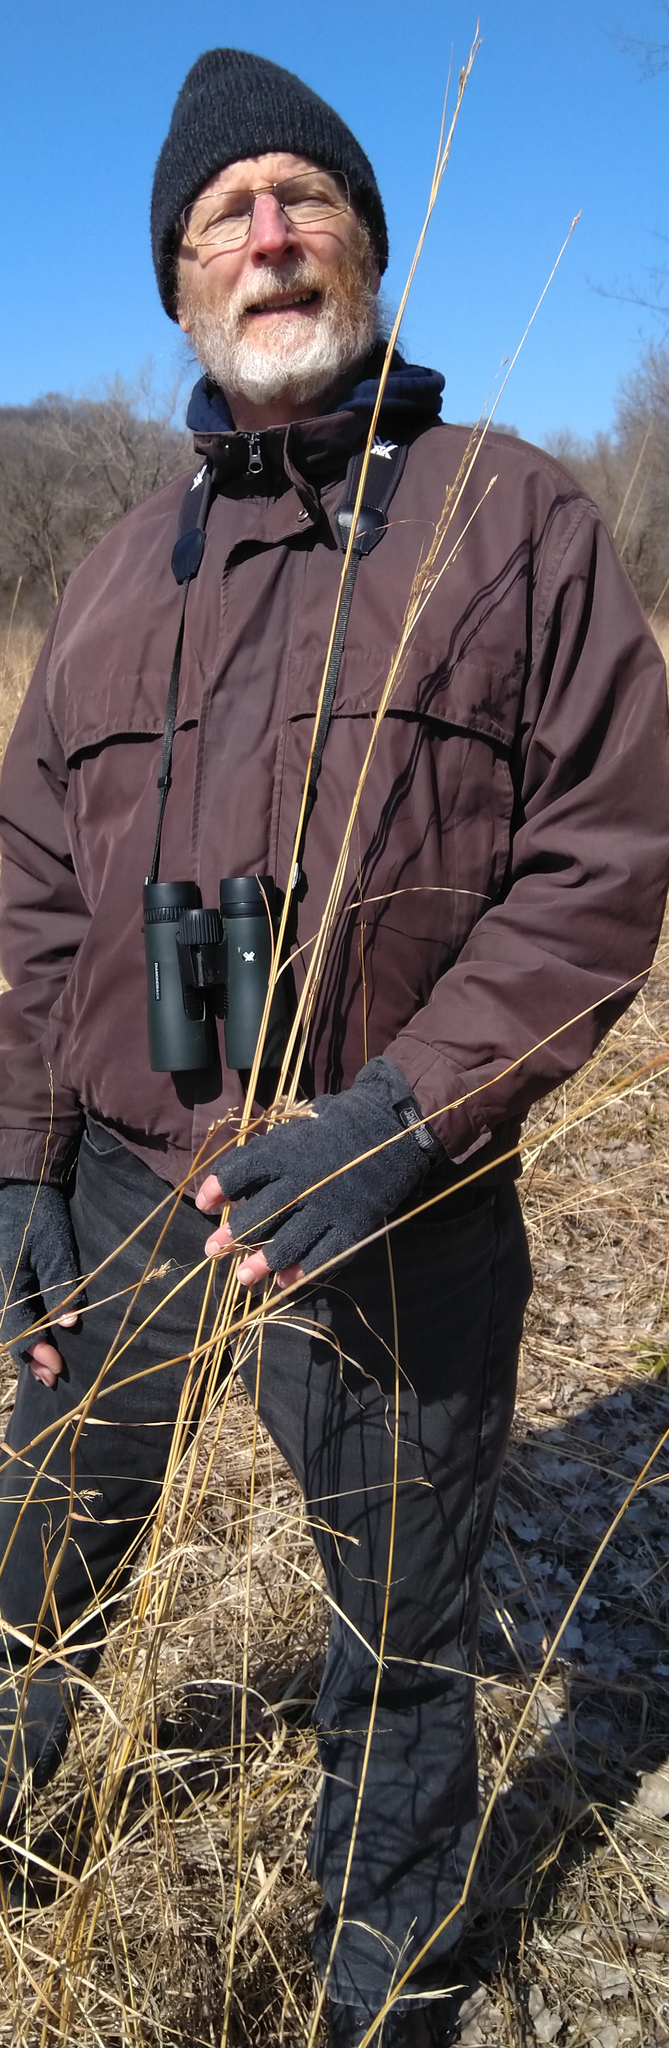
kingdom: Plantae
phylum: Tracheophyta
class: Liliopsida
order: Poales
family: Poaceae
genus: Sorghastrum
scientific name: Sorghastrum nutans
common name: Indian grass
